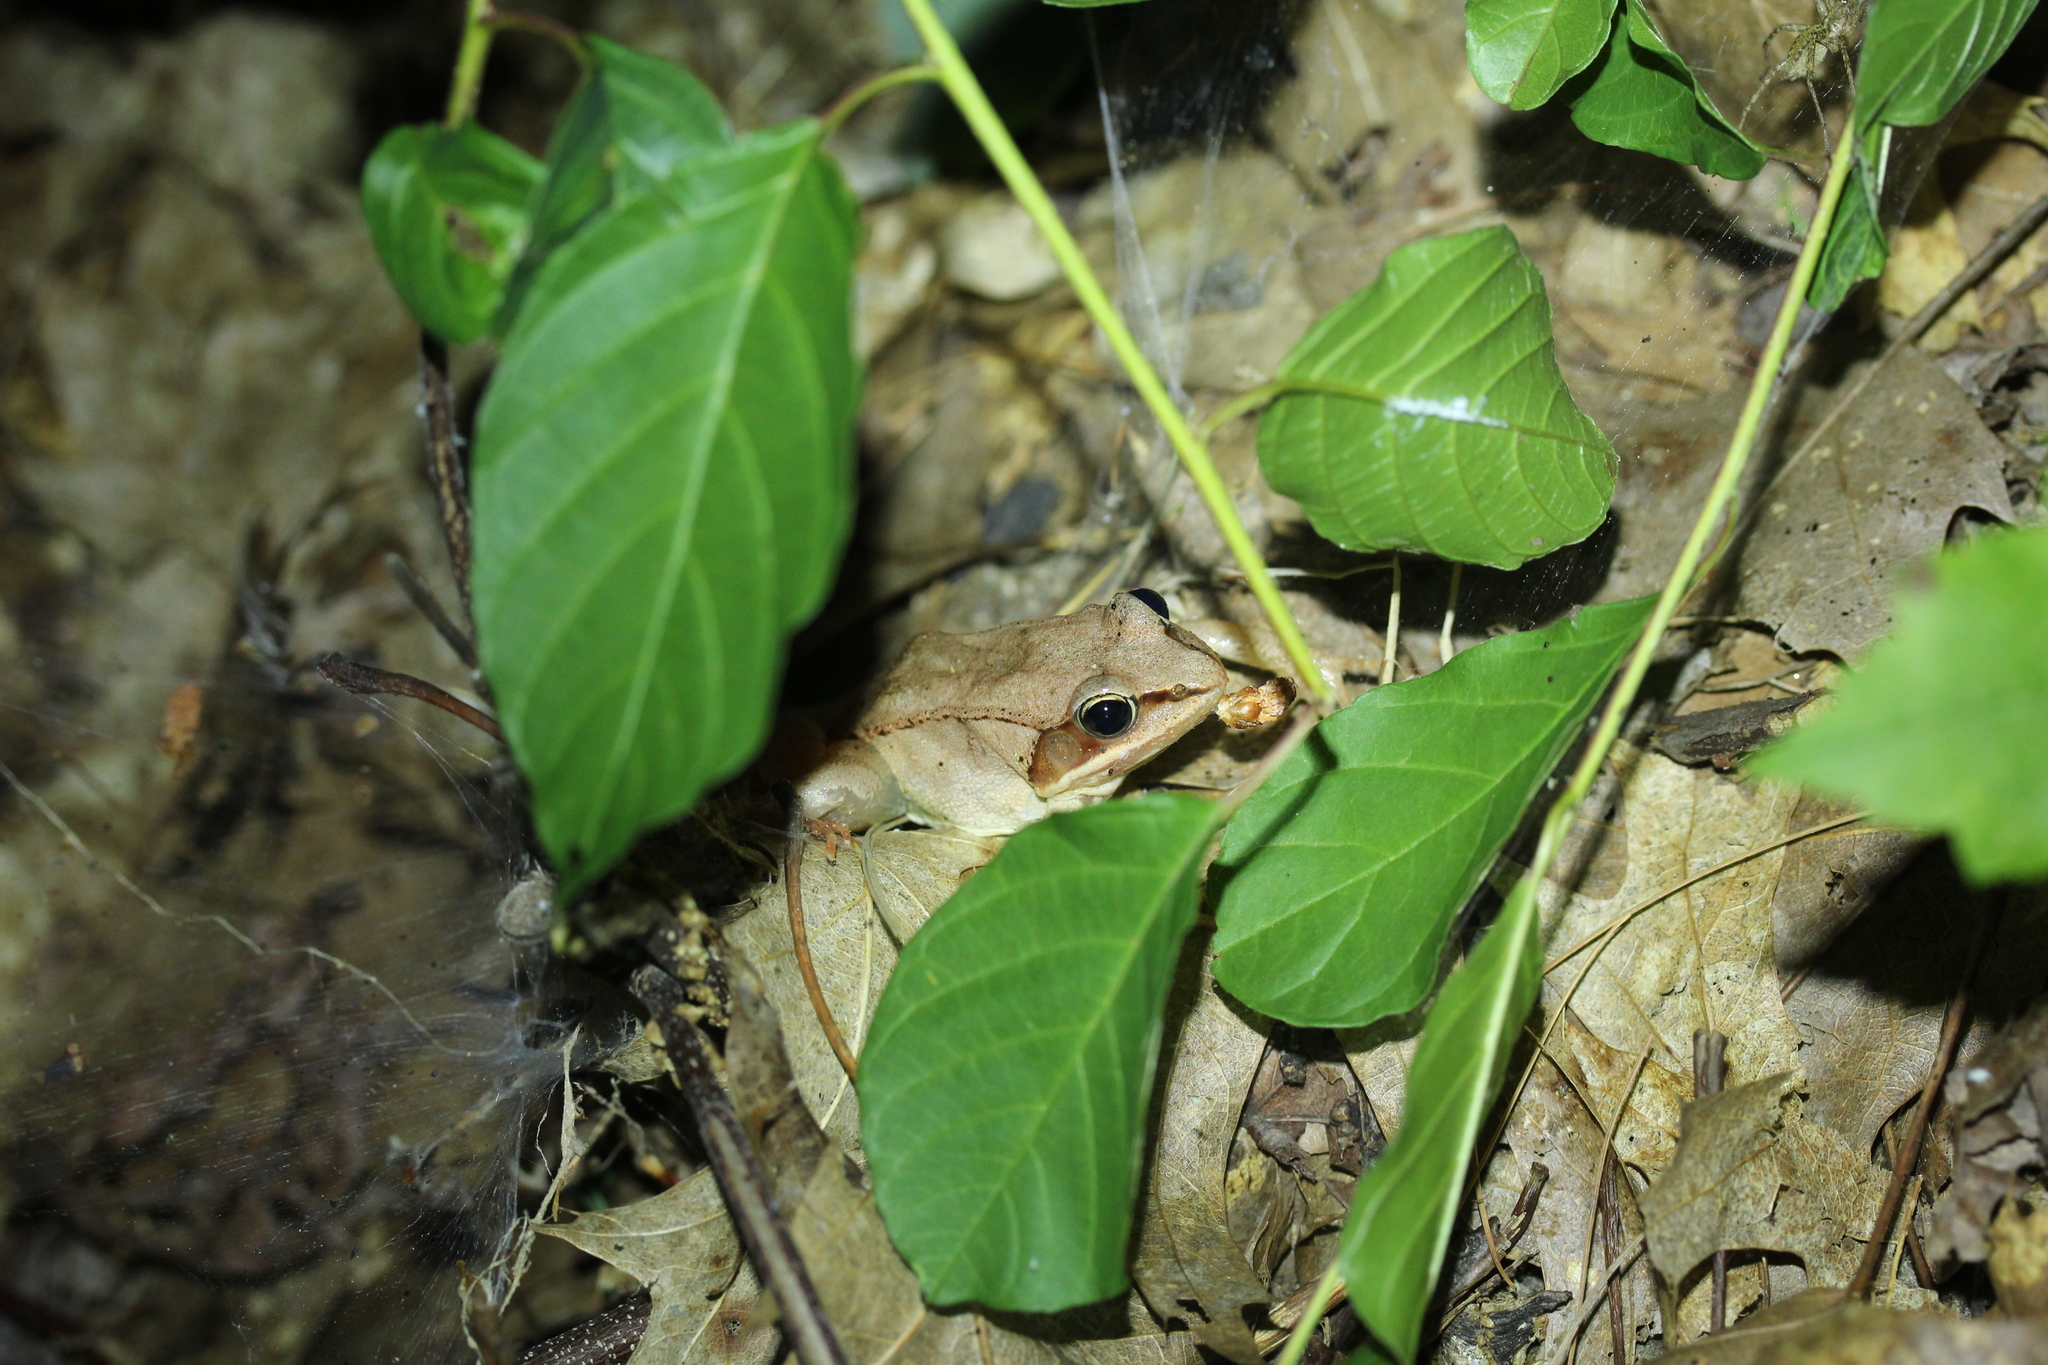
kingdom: Animalia
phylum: Chordata
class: Amphibia
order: Anura
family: Ranidae
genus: Lithobates
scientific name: Lithobates sylvaticus
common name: Wood frog
